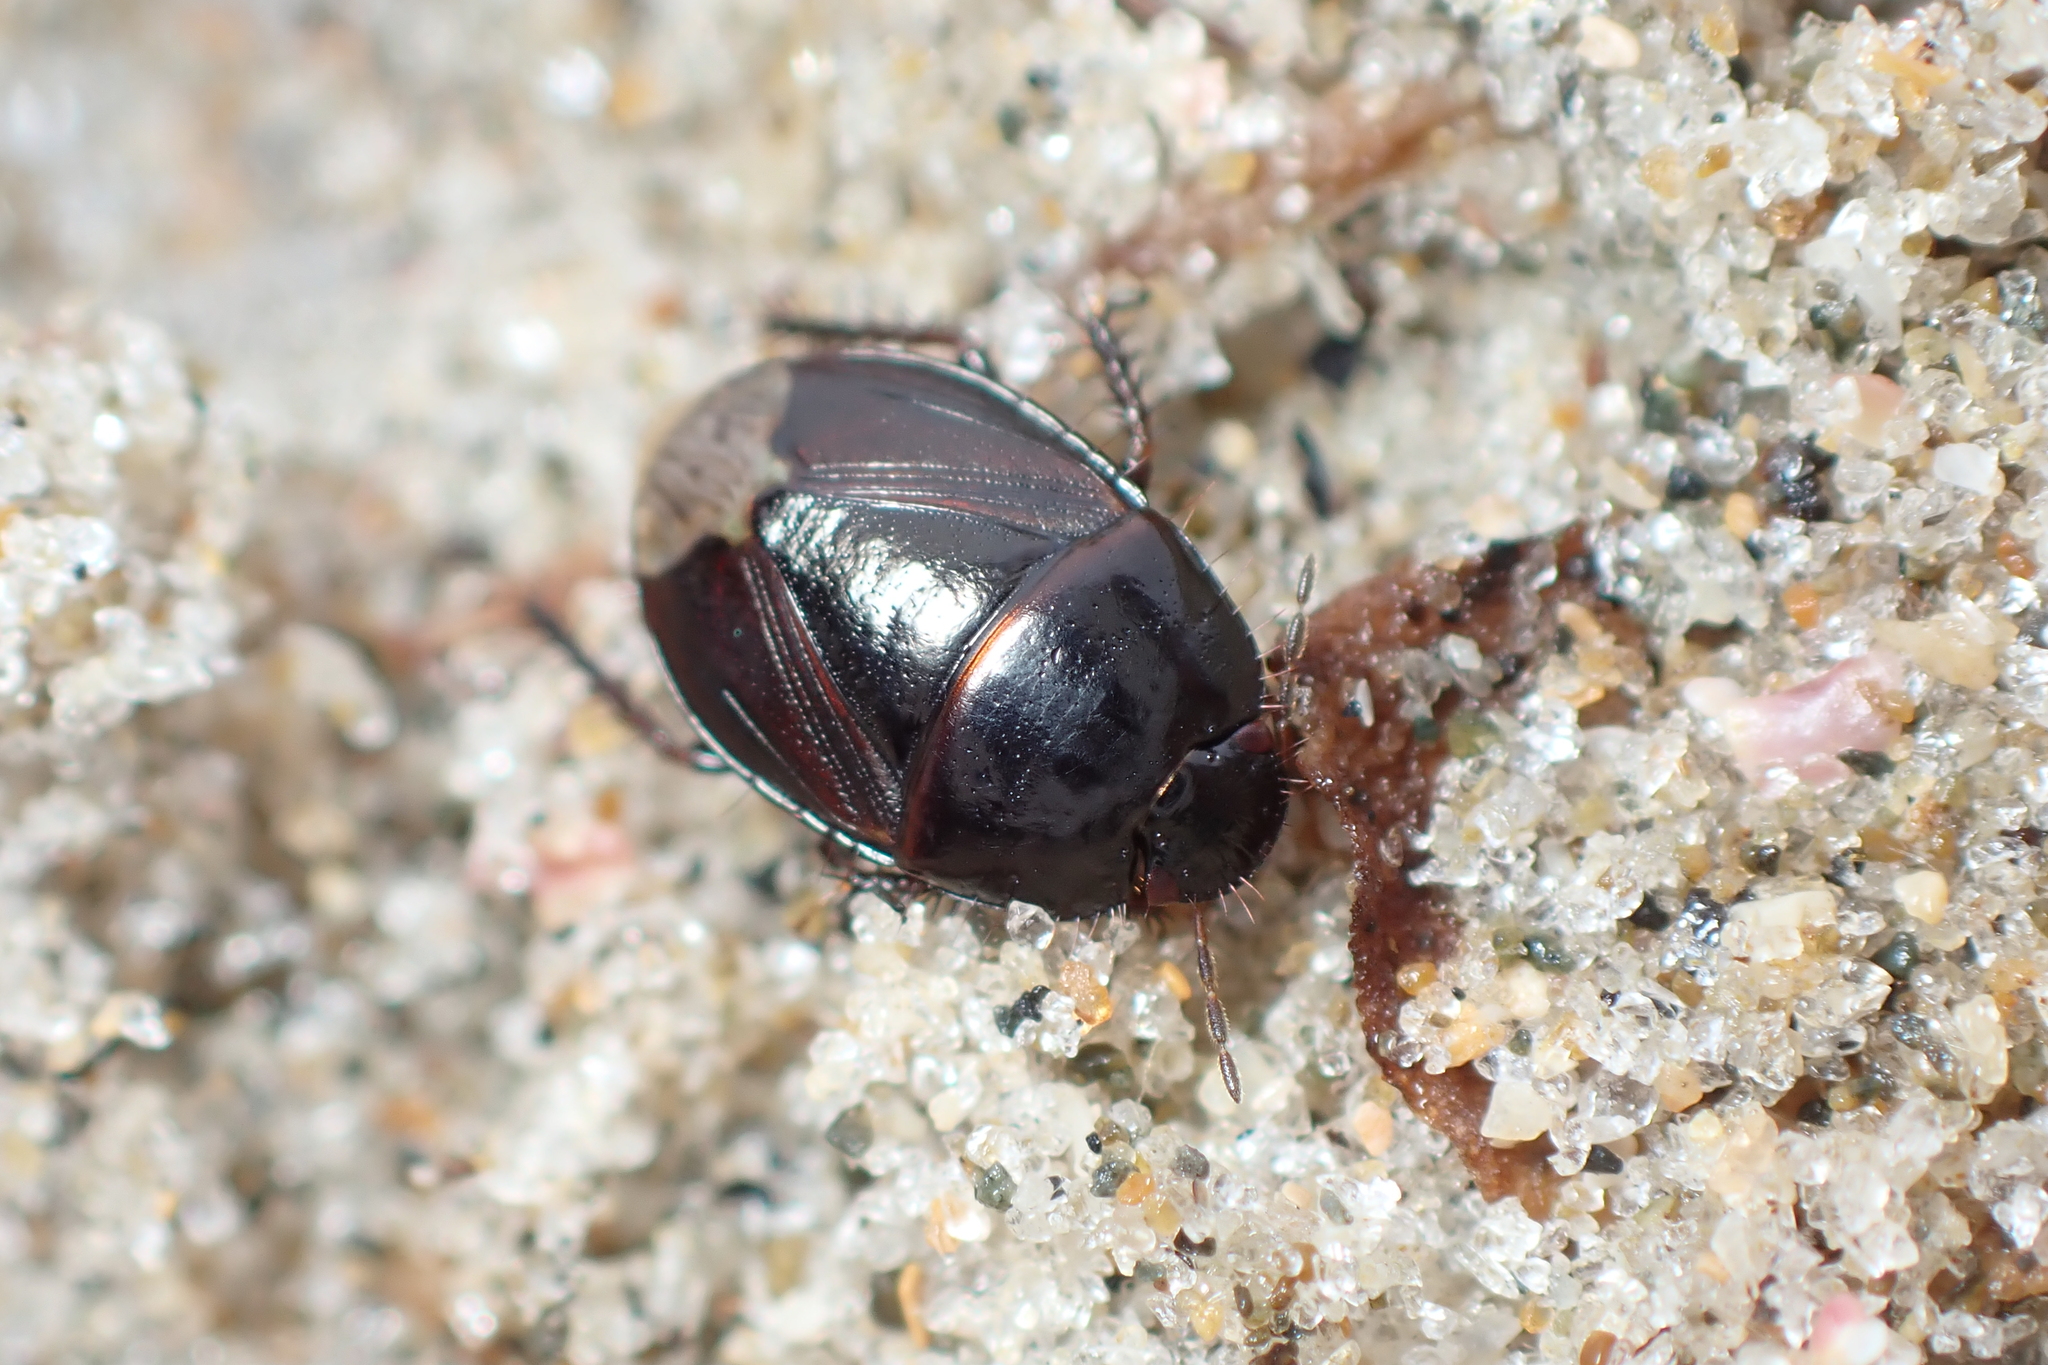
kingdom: Animalia
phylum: Arthropoda
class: Insecta
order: Hemiptera
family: Cydnidae
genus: Macroscytus
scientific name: Macroscytus australis
